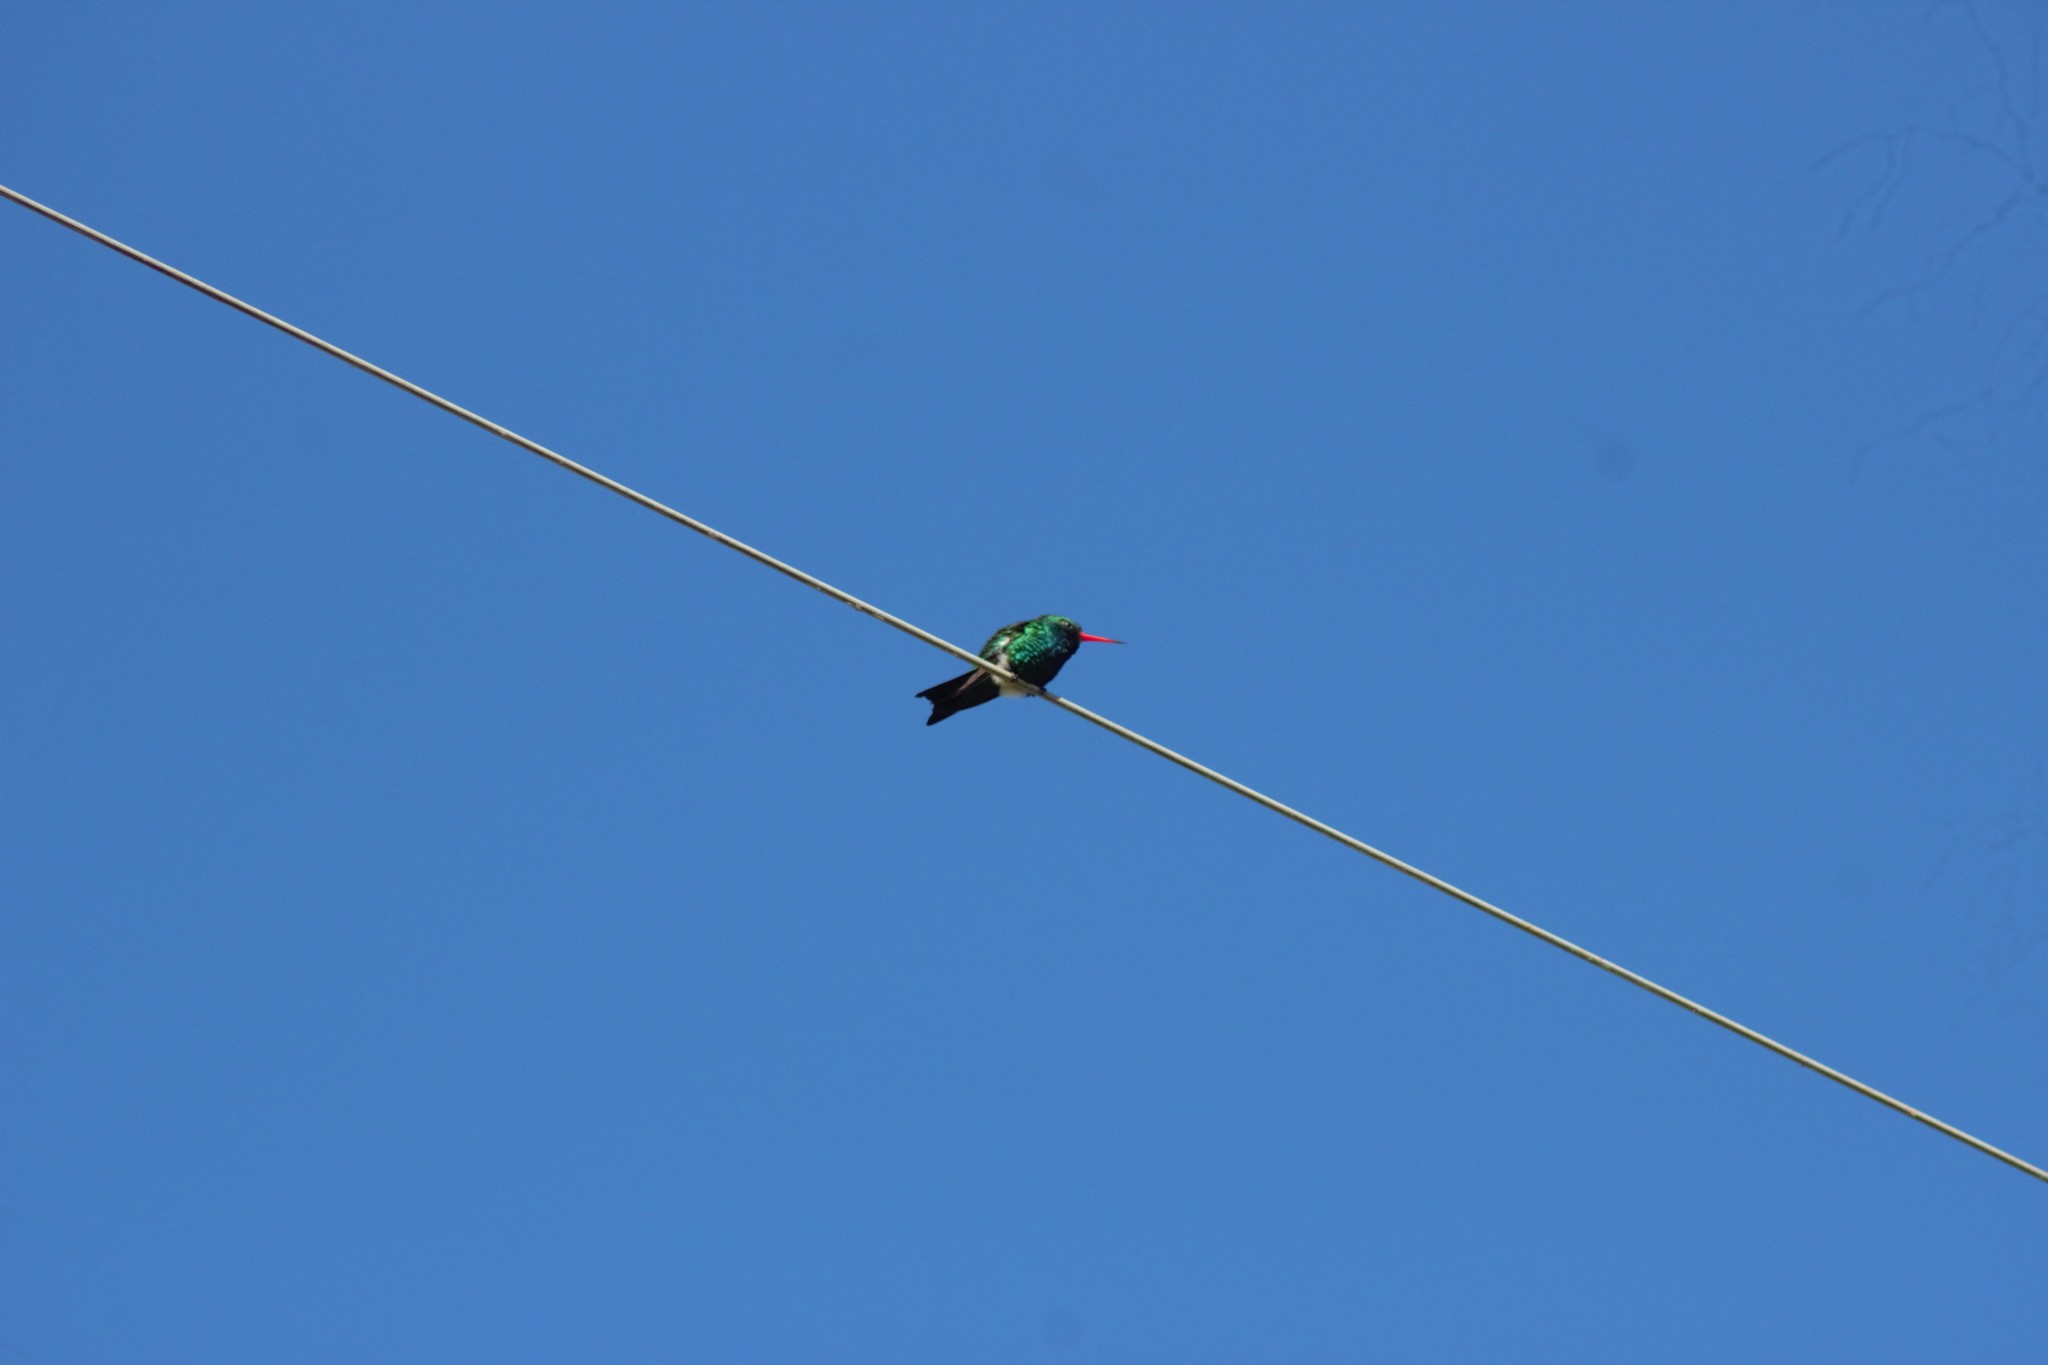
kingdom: Animalia
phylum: Chordata
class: Aves
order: Apodiformes
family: Trochilidae
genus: Chlorostilbon
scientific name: Chlorostilbon lucidus
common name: Glittering-bellied emerald
